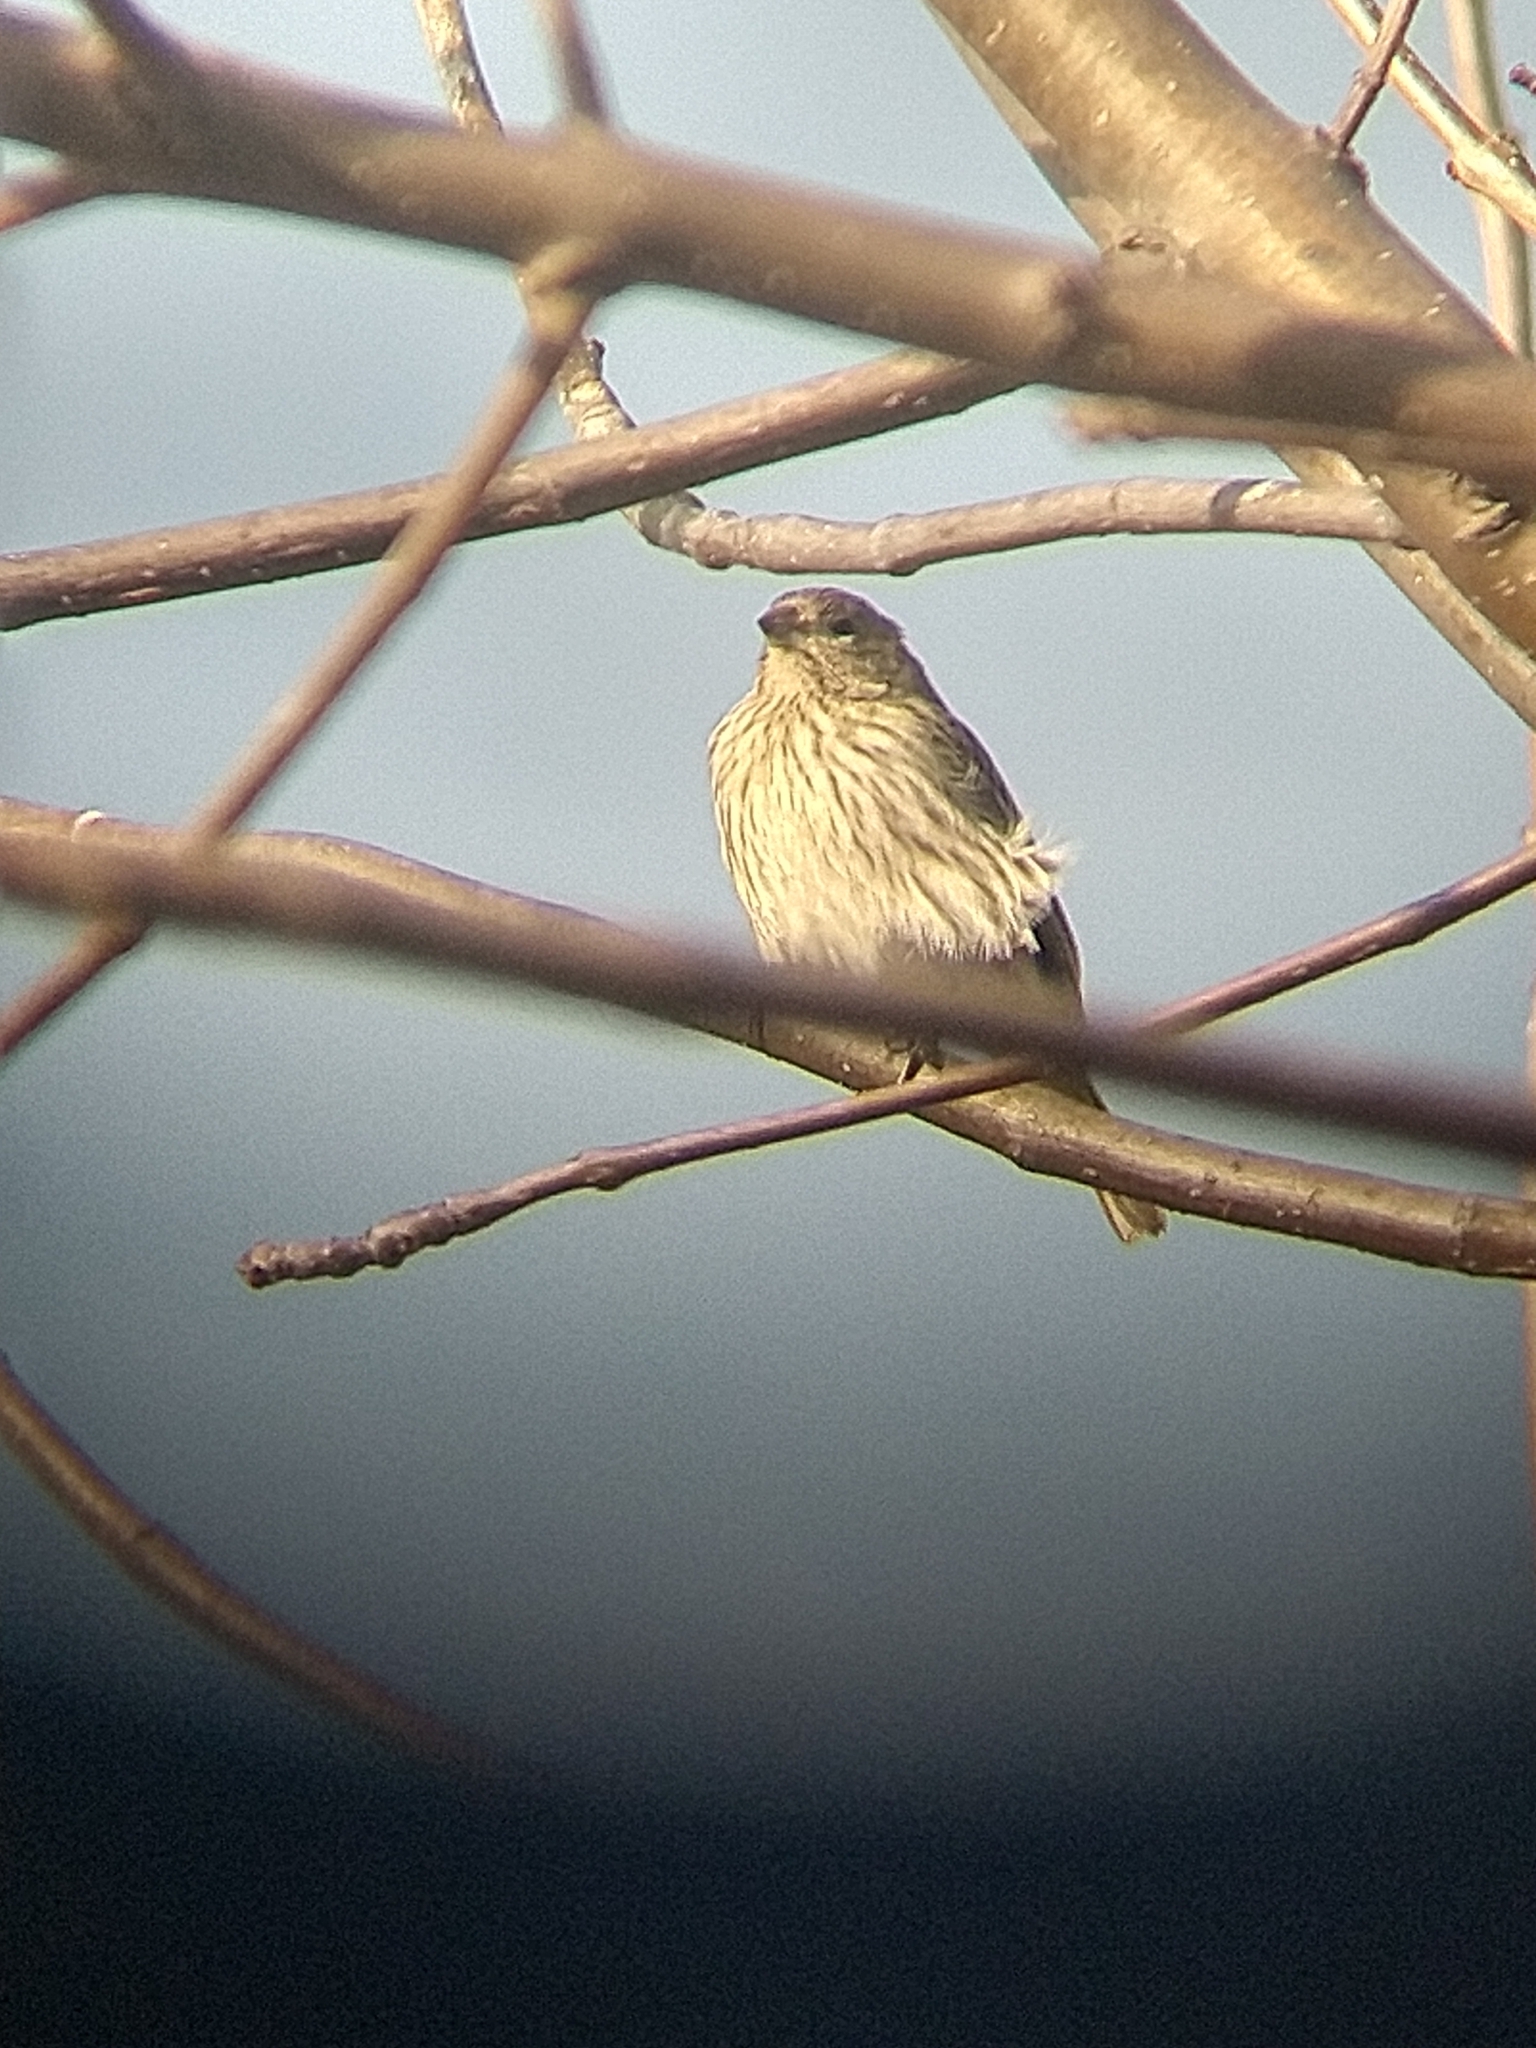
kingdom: Animalia
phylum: Chordata
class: Aves
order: Passeriformes
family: Thraupidae
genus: Sicalis
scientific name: Sicalis flaveola
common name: Saffron finch
